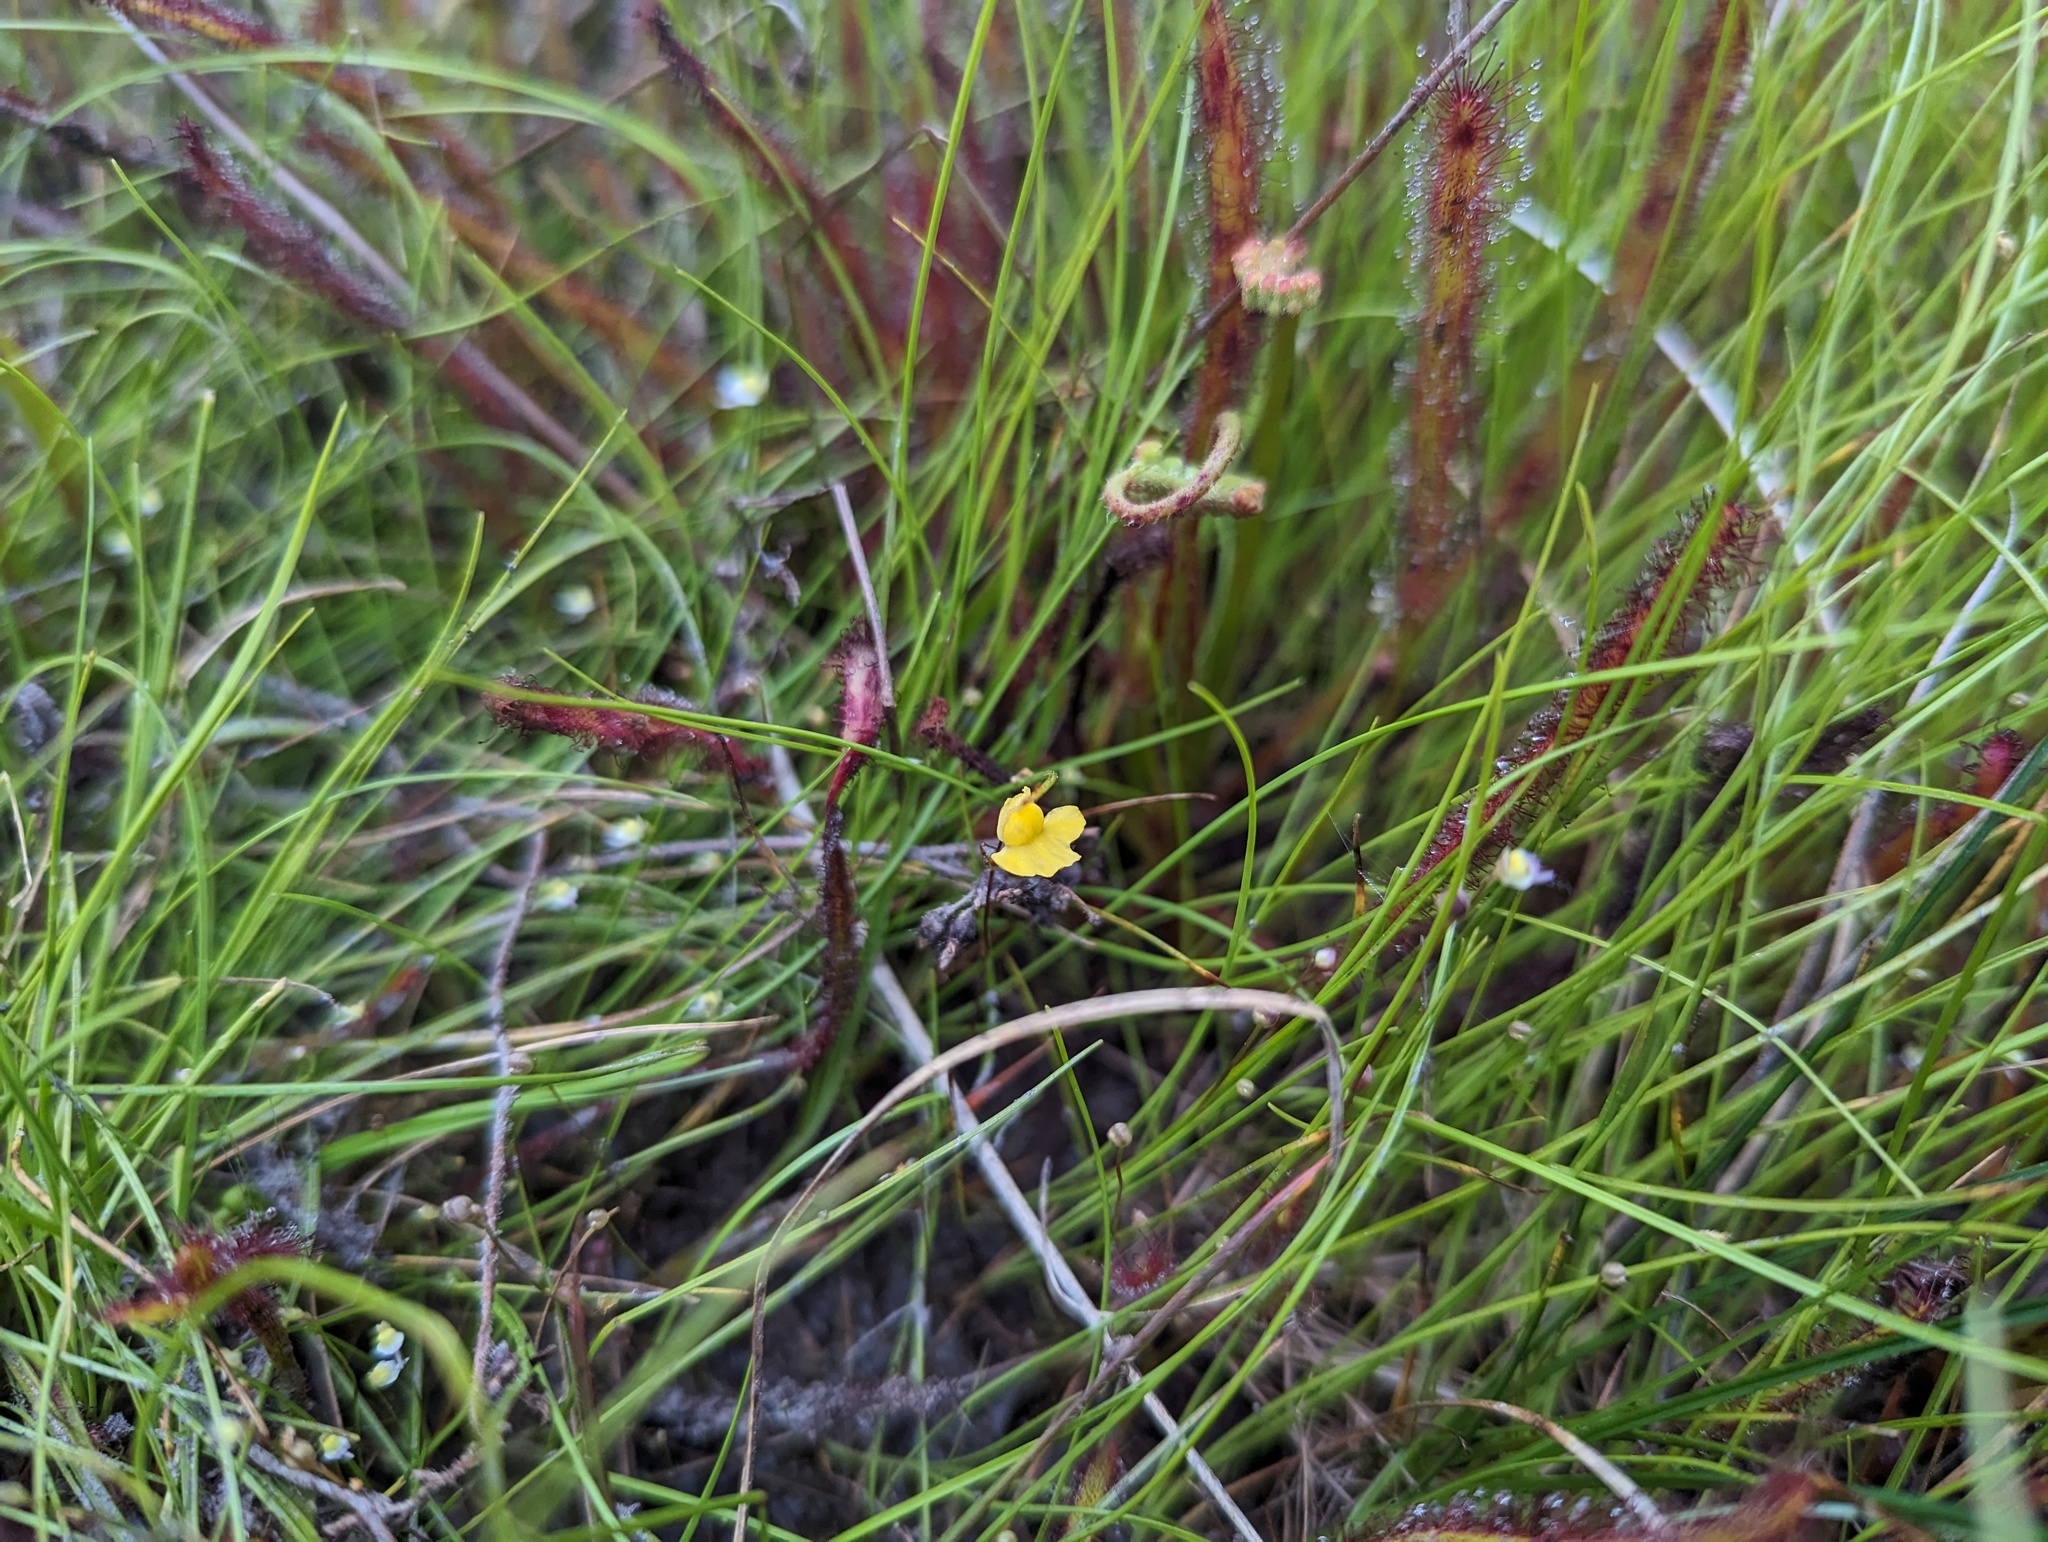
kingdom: Plantae
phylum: Tracheophyta
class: Magnoliopsida
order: Lamiales
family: Lentibulariaceae
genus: Utricularia
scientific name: Utricularia subulata
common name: Tiny bladderwort
